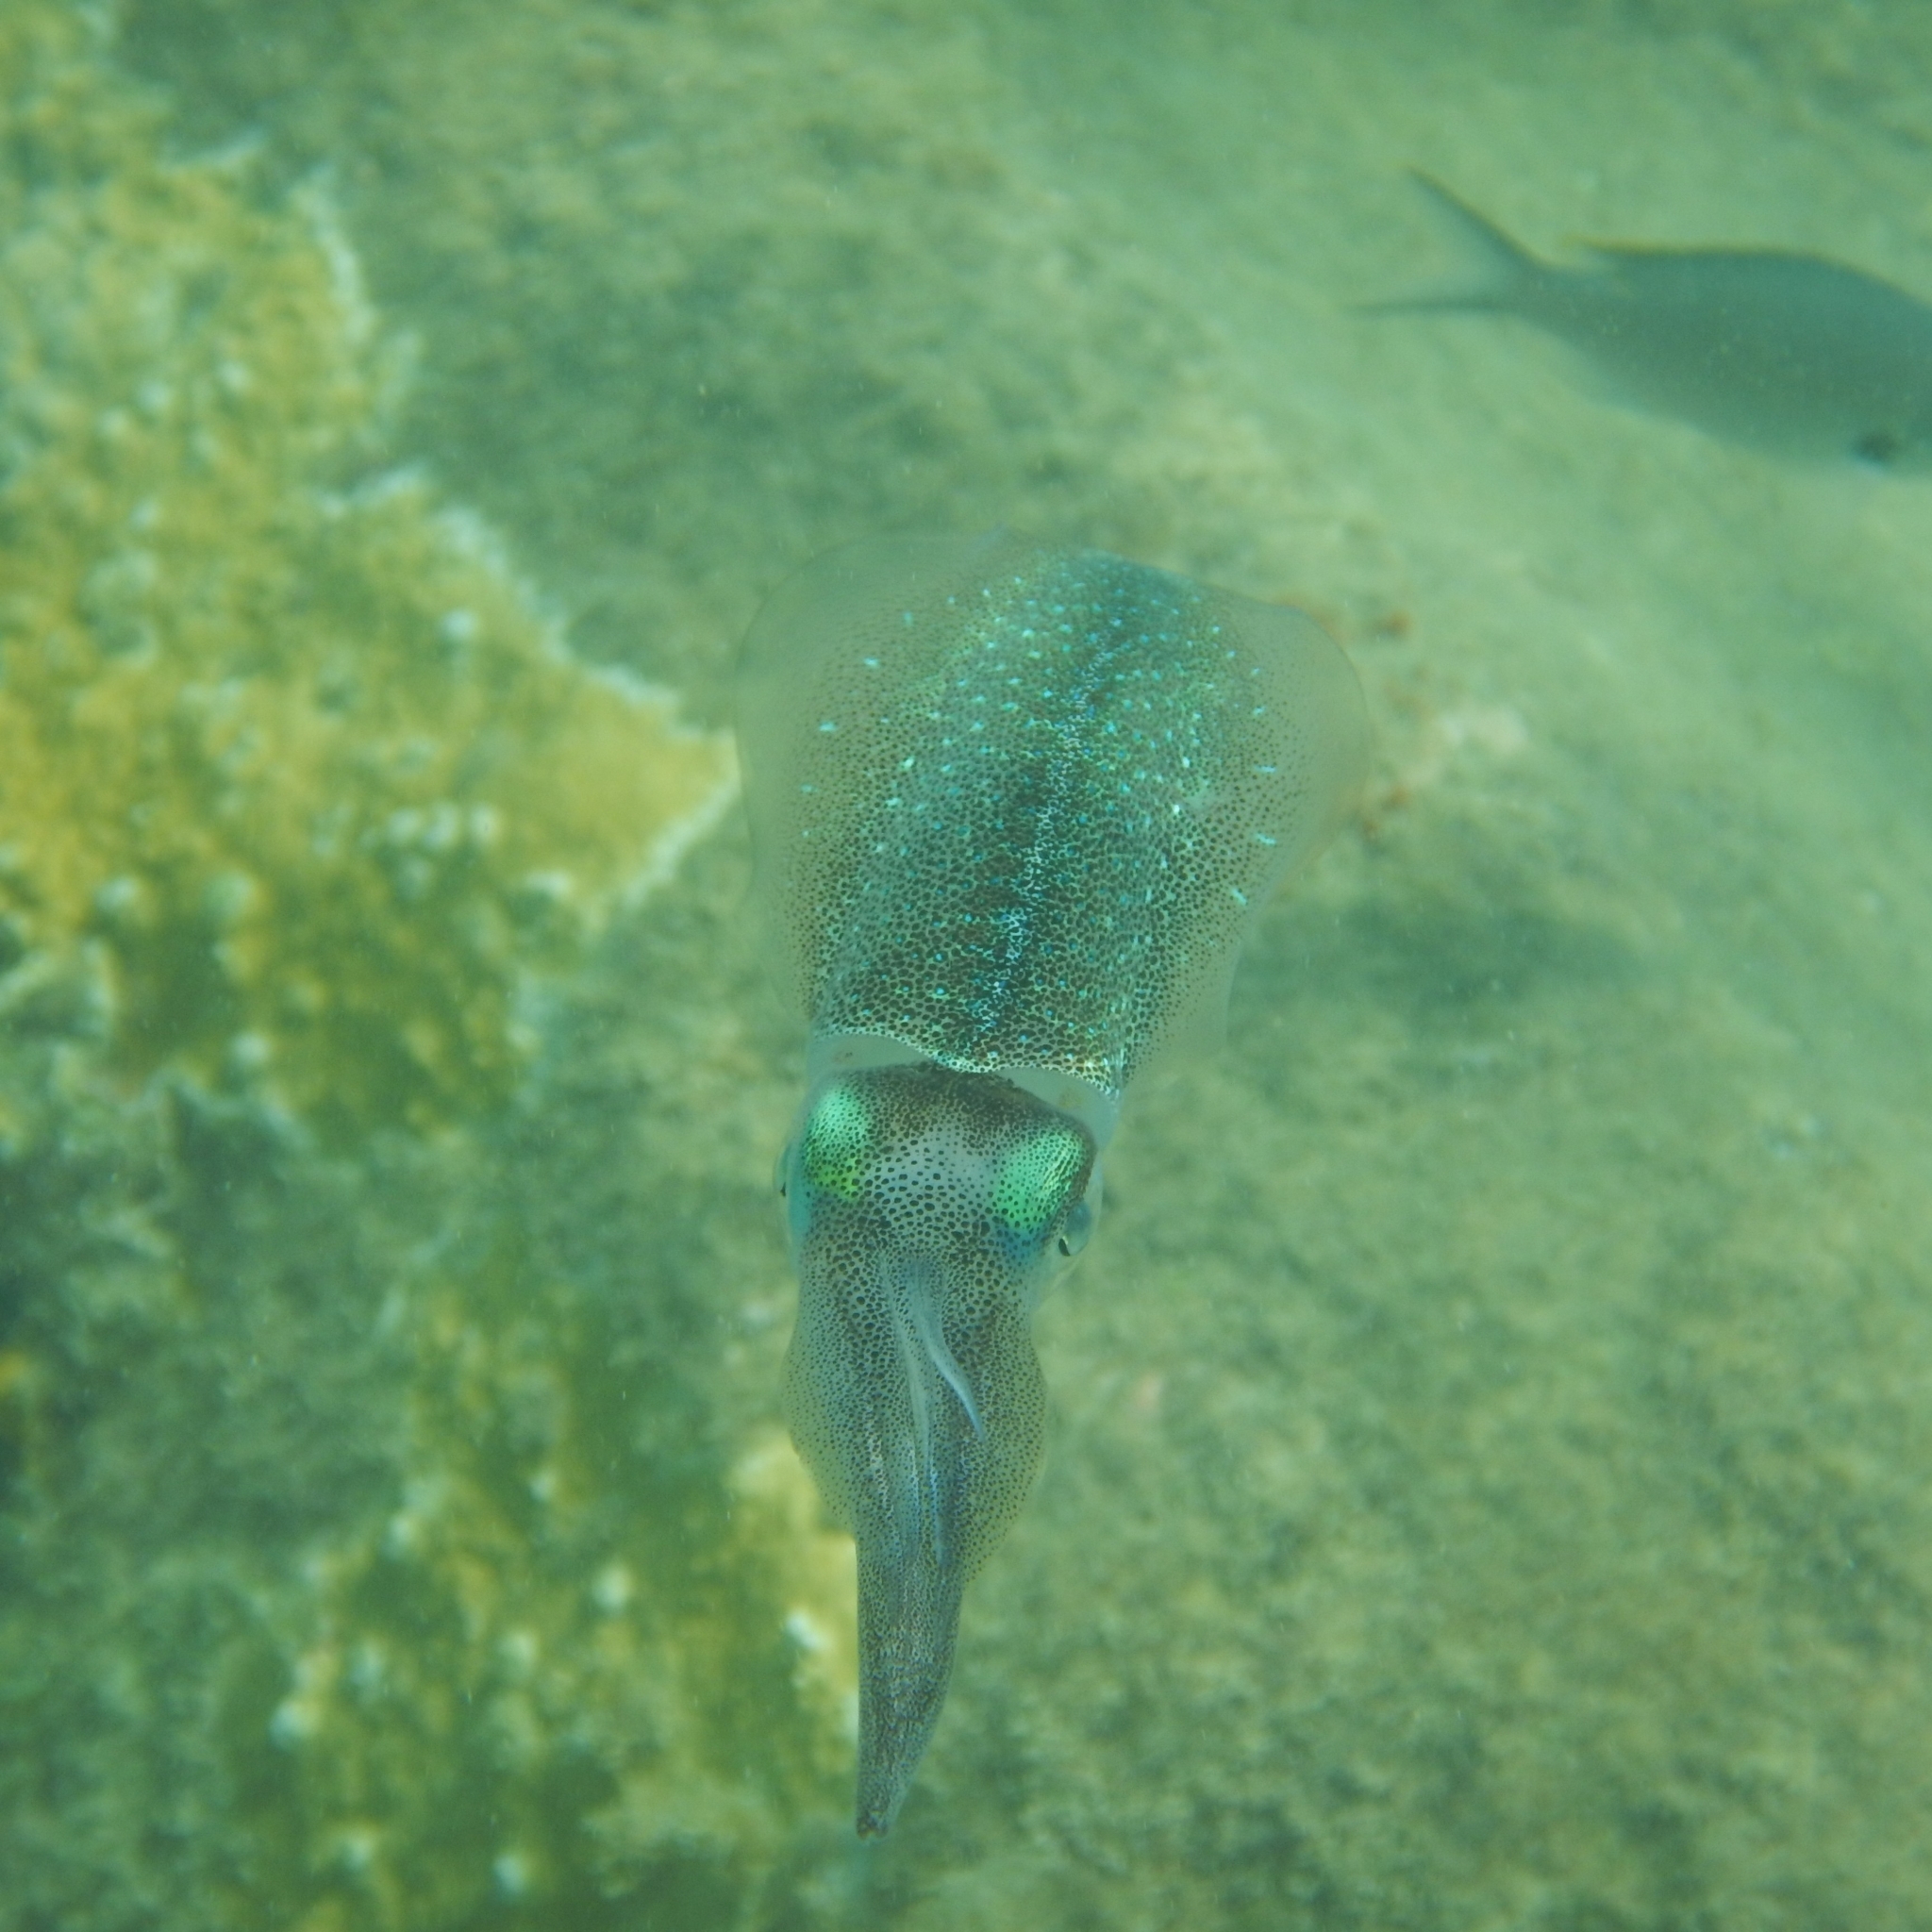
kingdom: Animalia
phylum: Mollusca
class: Cephalopoda
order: Myopsida
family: Loliginidae
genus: Sepioteuthis
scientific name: Sepioteuthis sepioidea
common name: Caribbean reef squid
